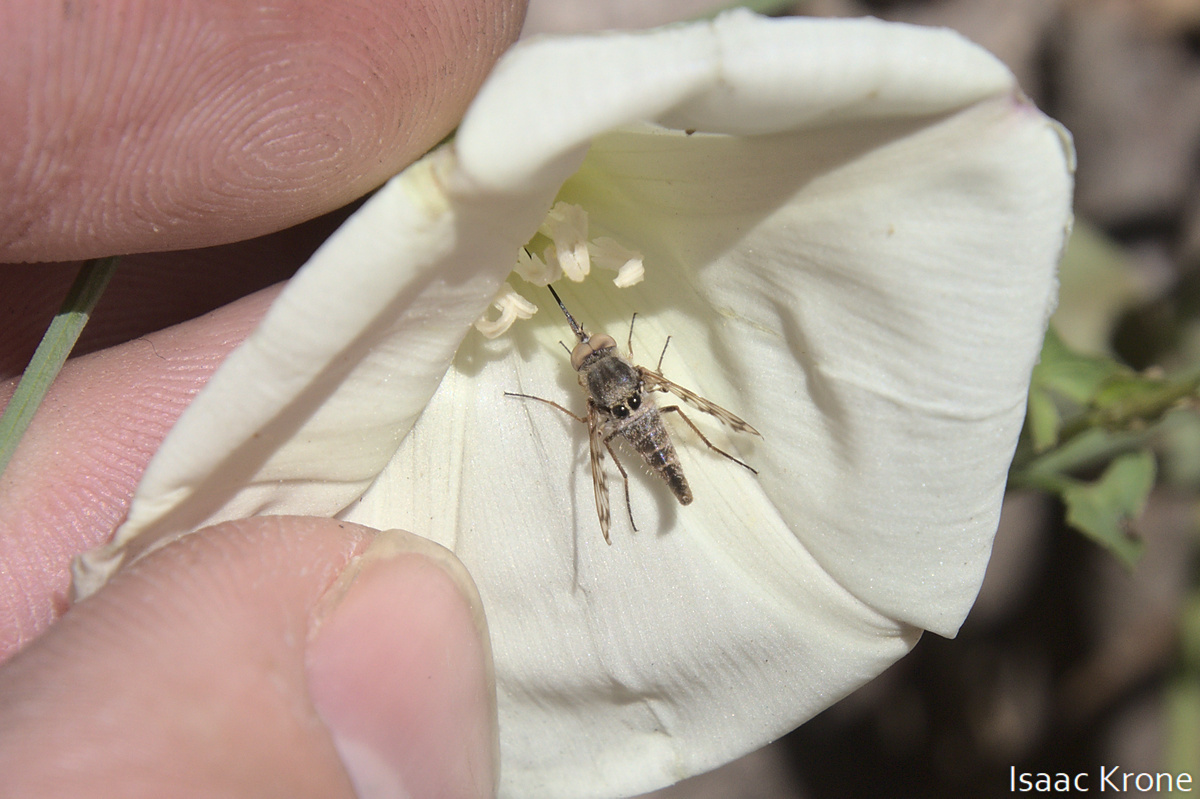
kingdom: Animalia
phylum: Arthropoda
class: Insecta
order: Diptera
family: Bombyliidae
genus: Geminaria
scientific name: Geminaria canalis
